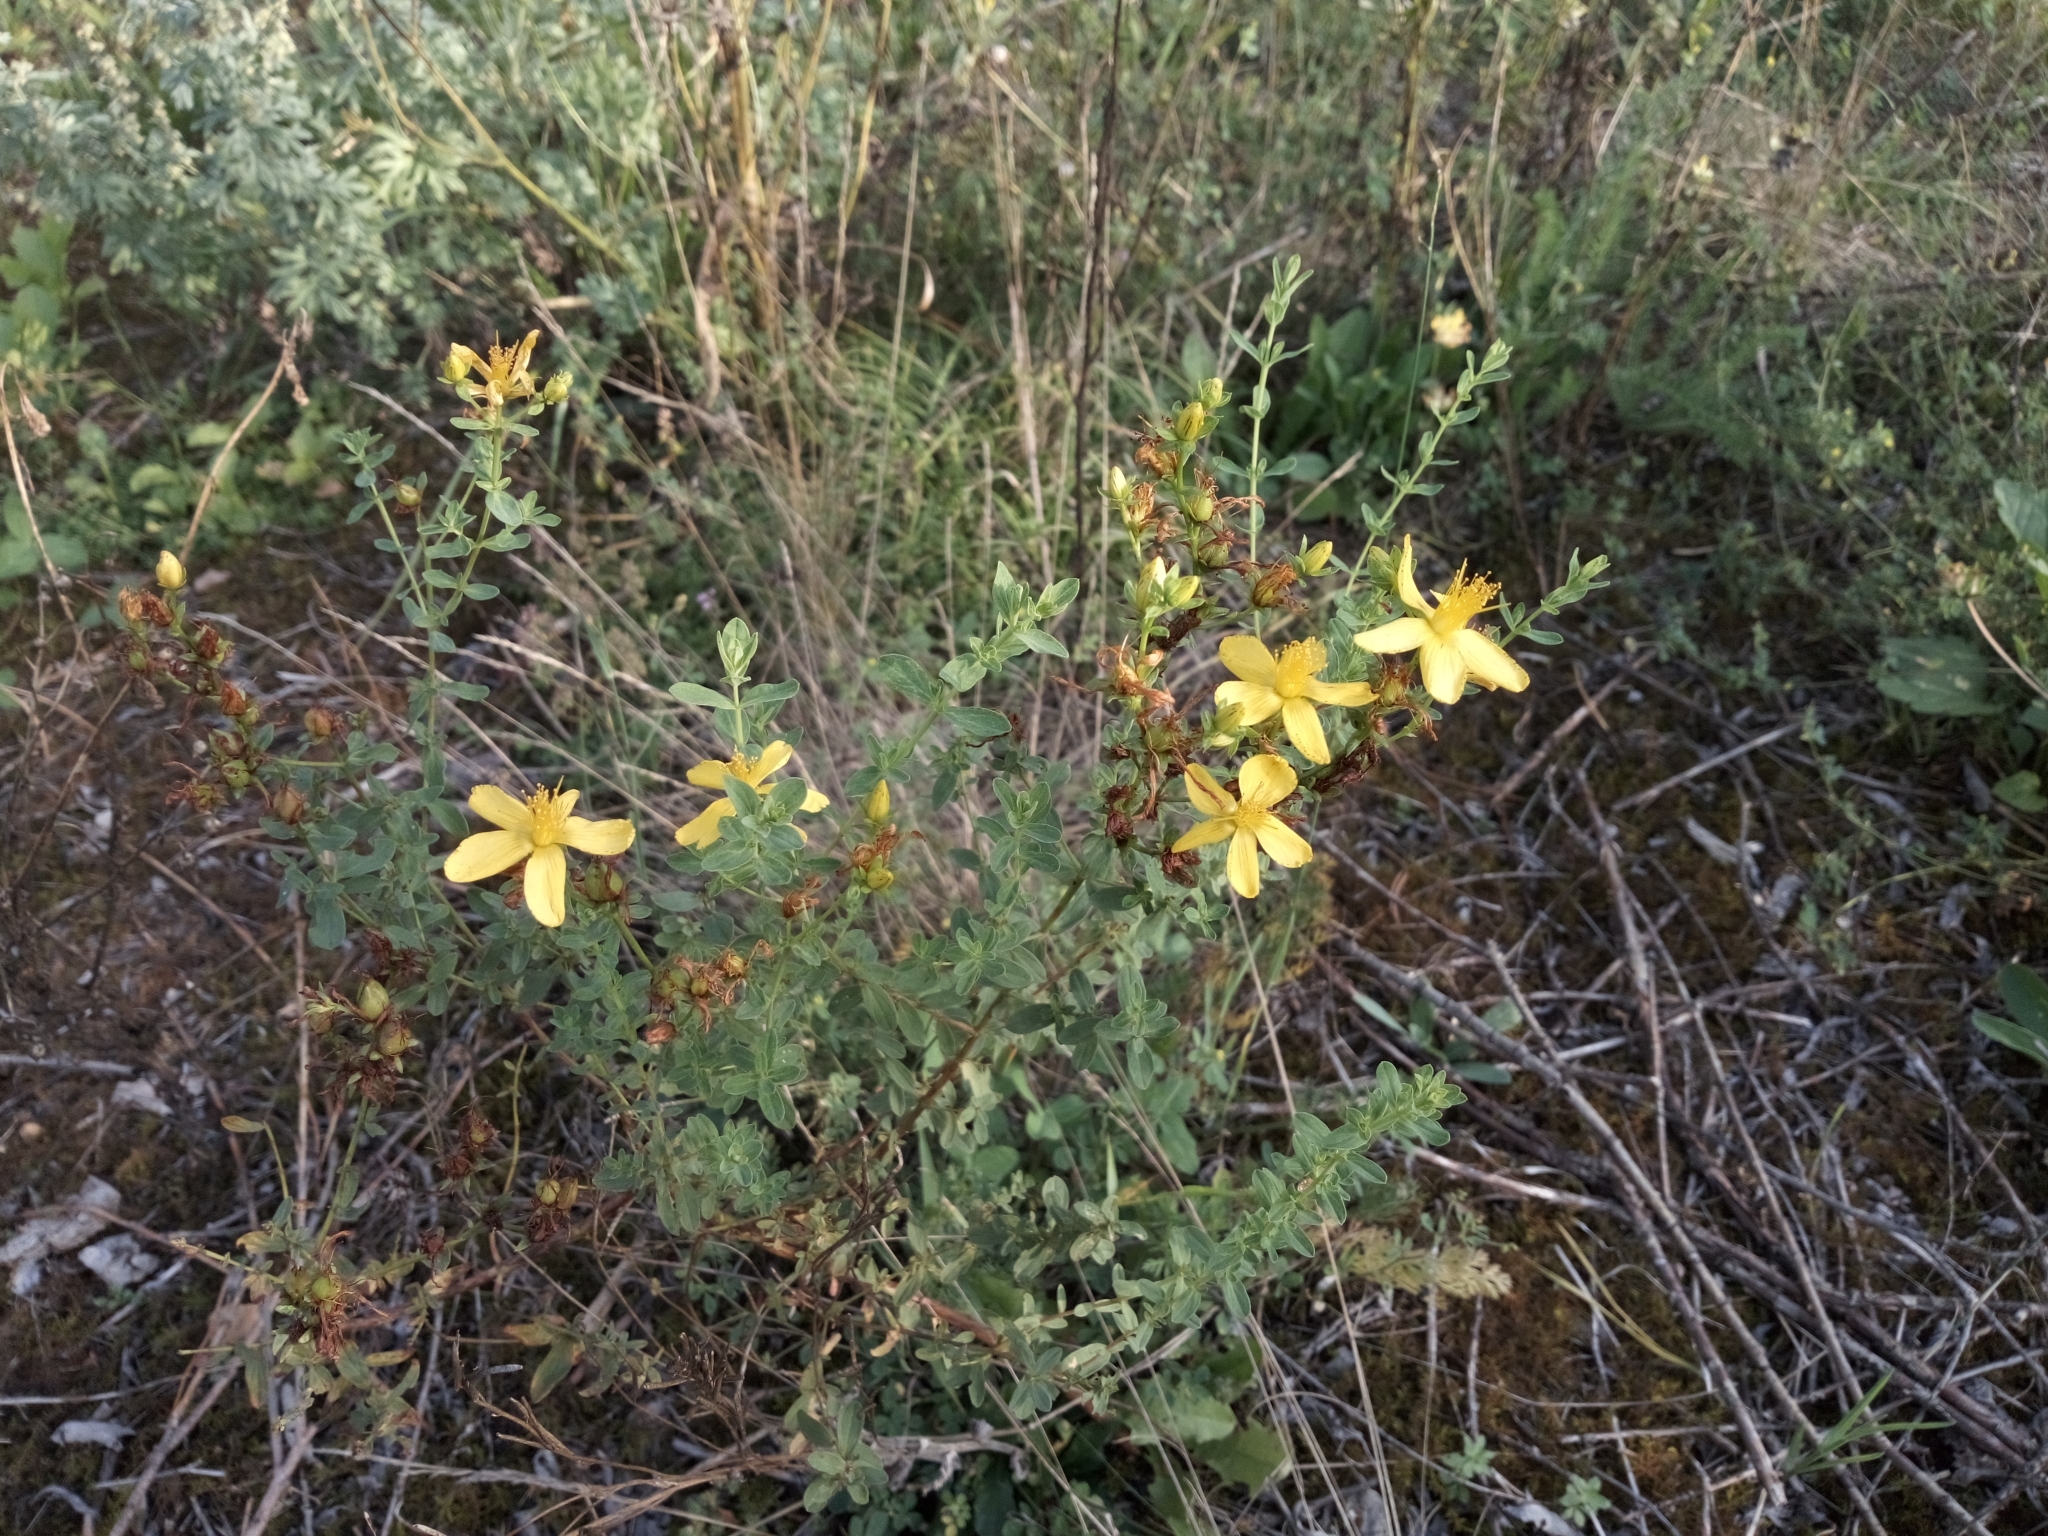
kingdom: Plantae
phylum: Tracheophyta
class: Magnoliopsida
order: Malpighiales
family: Hypericaceae
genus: Hypericum
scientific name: Hypericum perforatum
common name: Common st. johnswort
